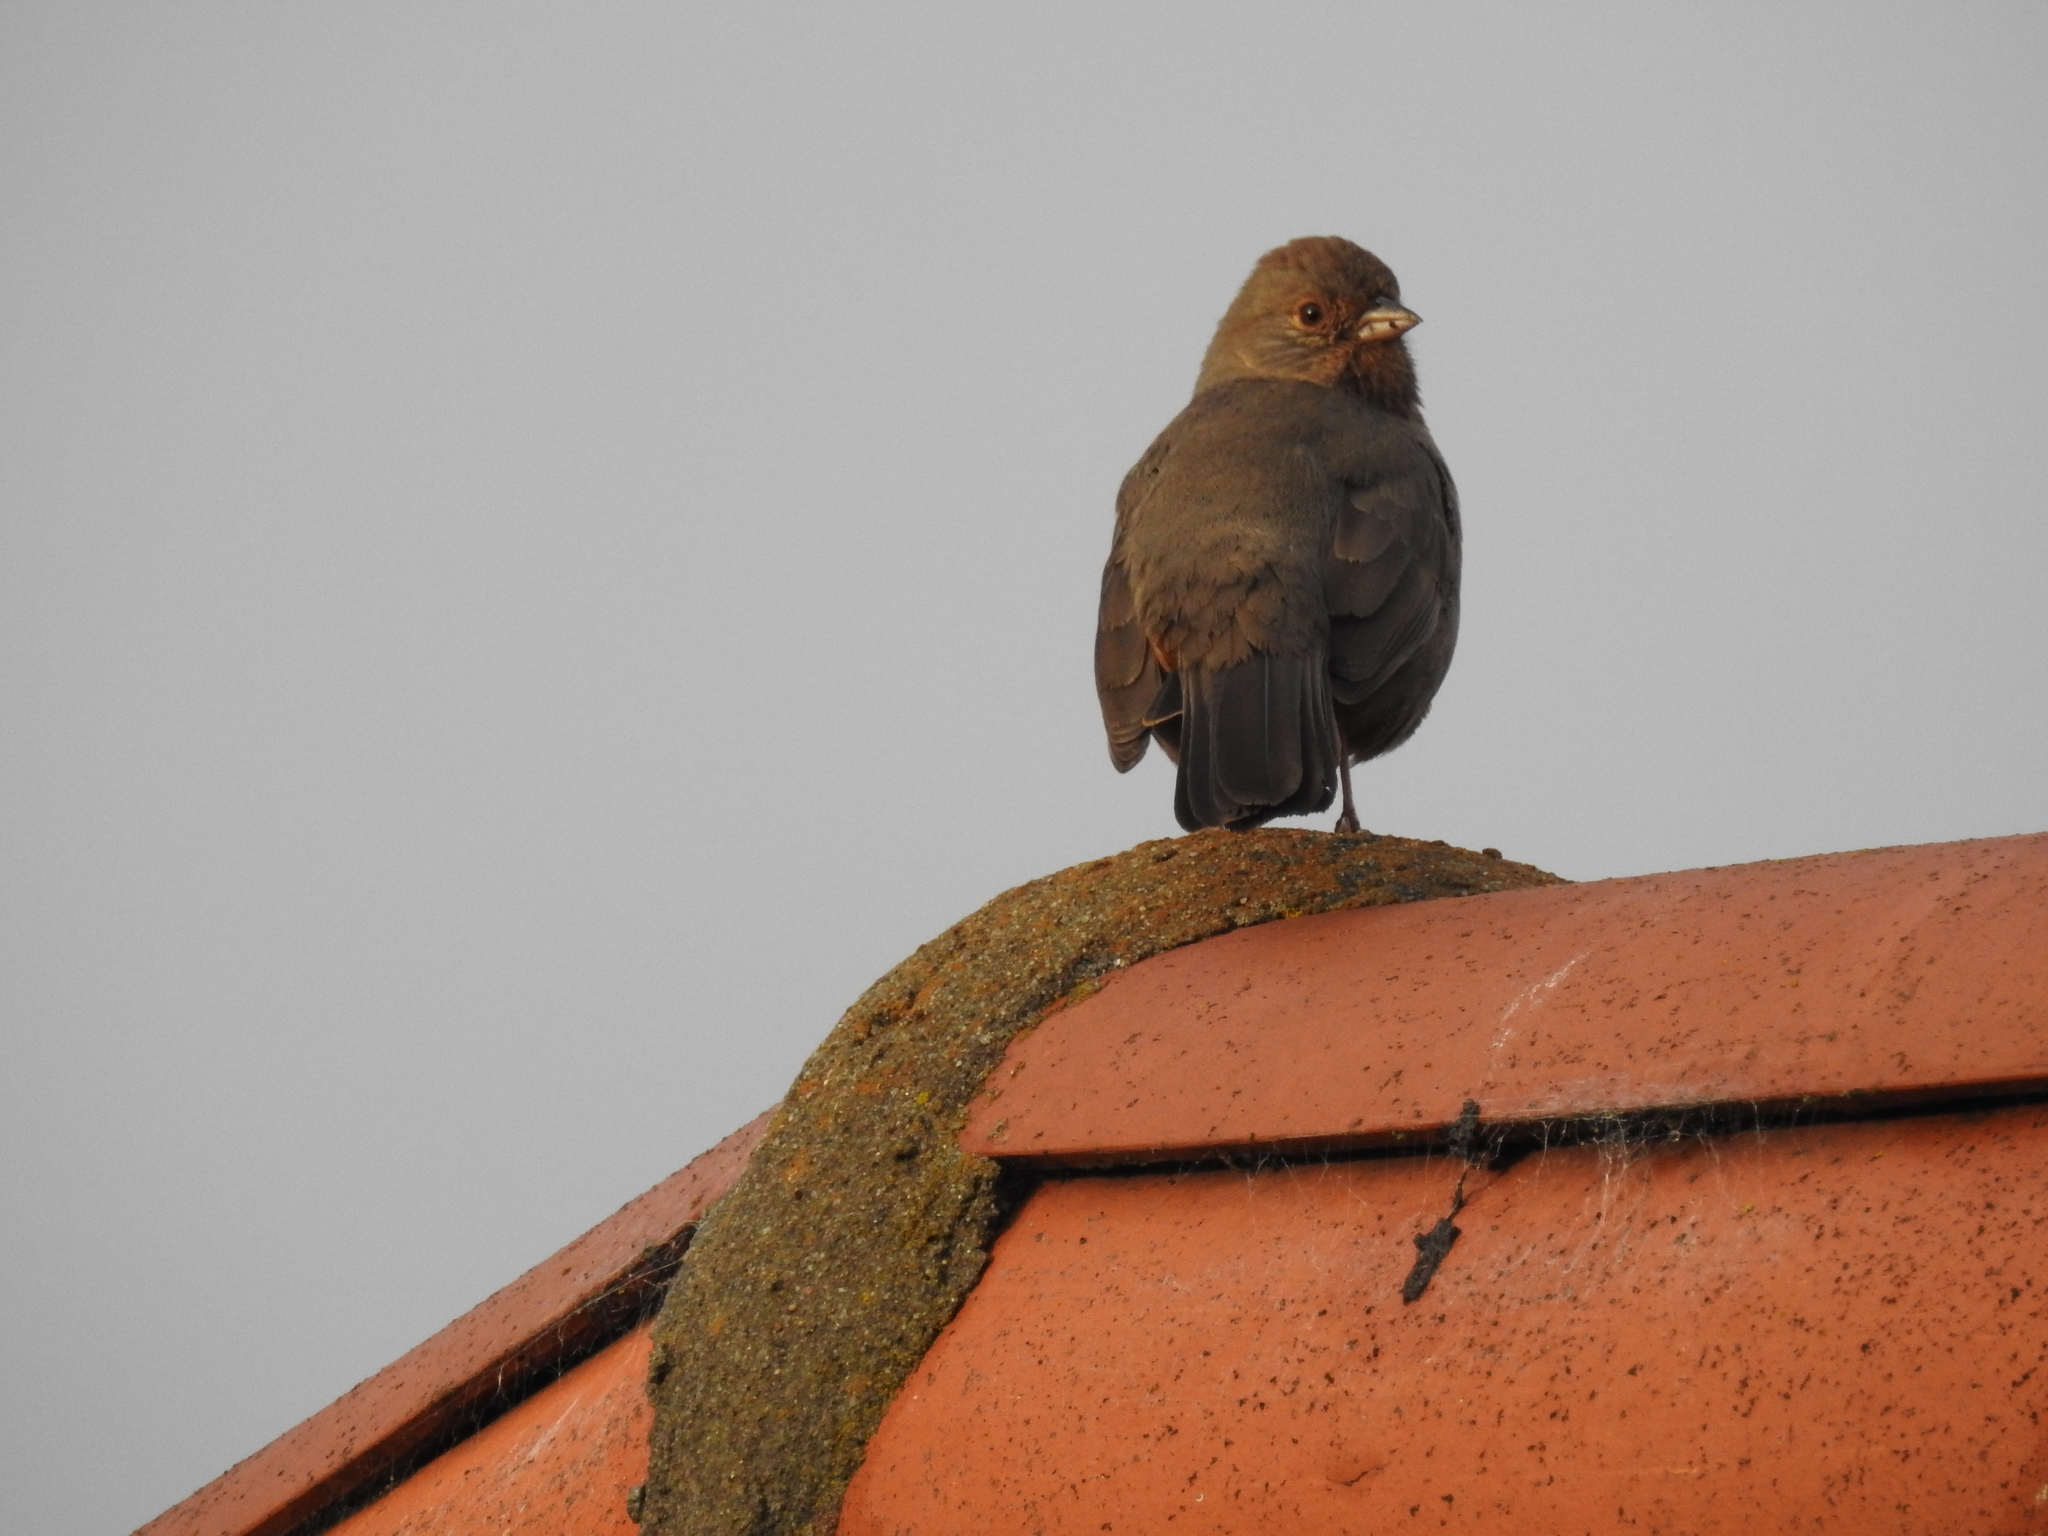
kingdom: Animalia
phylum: Chordata
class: Aves
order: Passeriformes
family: Passerellidae
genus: Melozone
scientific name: Melozone crissalis
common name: California towhee
